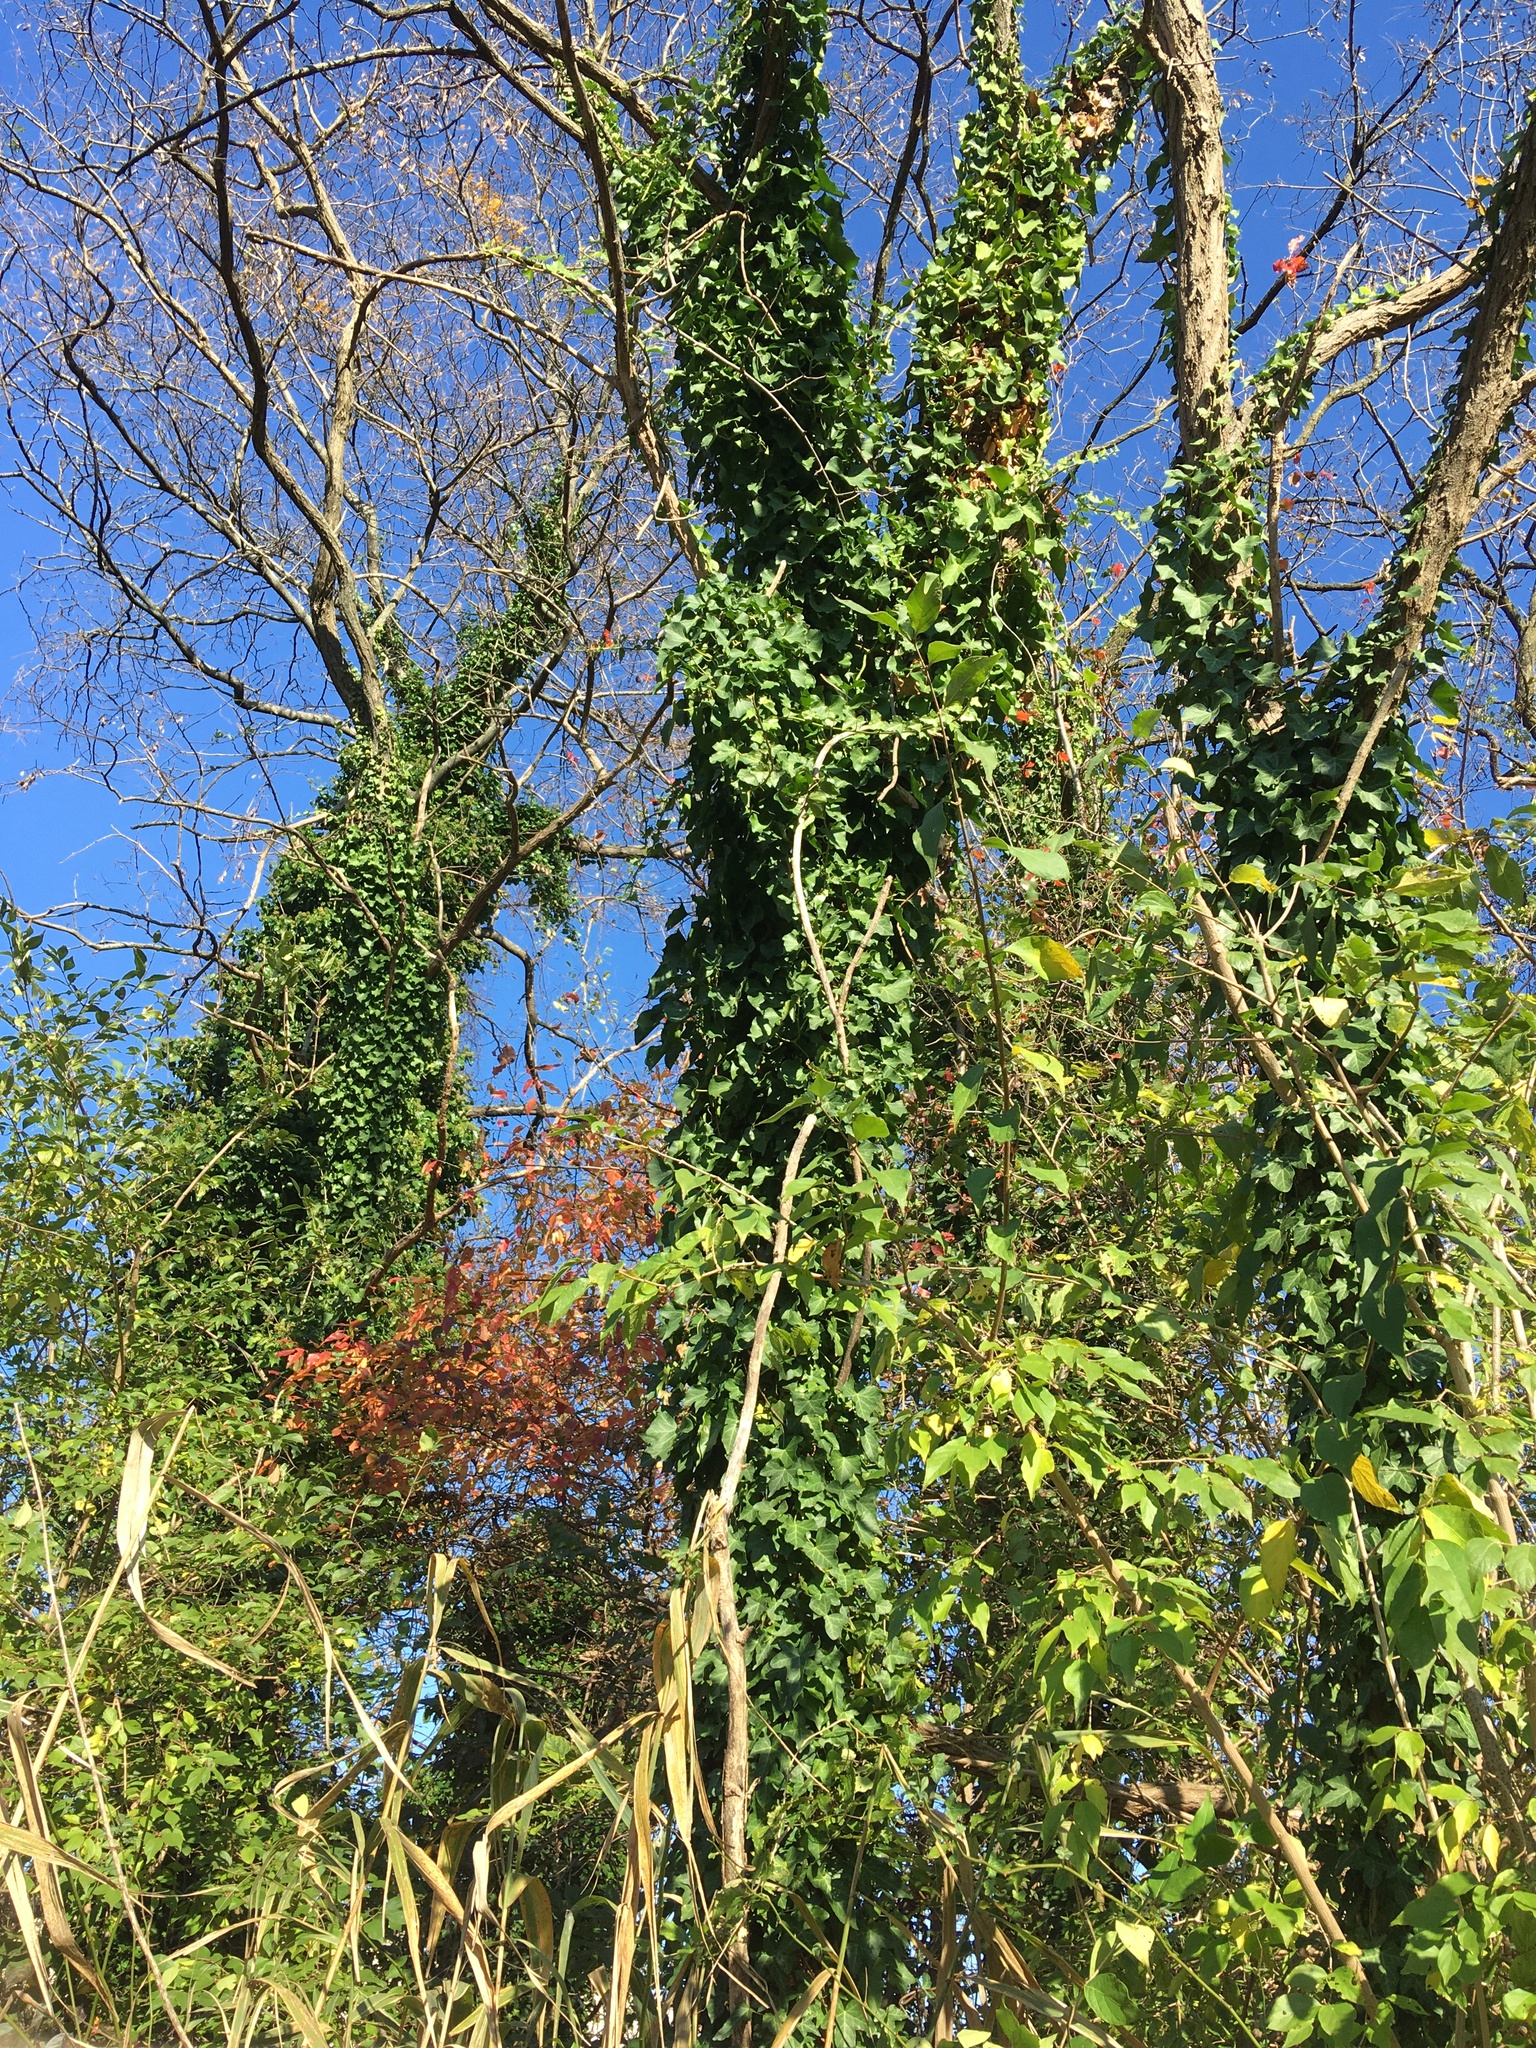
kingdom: Plantae
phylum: Tracheophyta
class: Magnoliopsida
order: Apiales
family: Araliaceae
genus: Hedera
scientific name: Hedera helix
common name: Ivy
